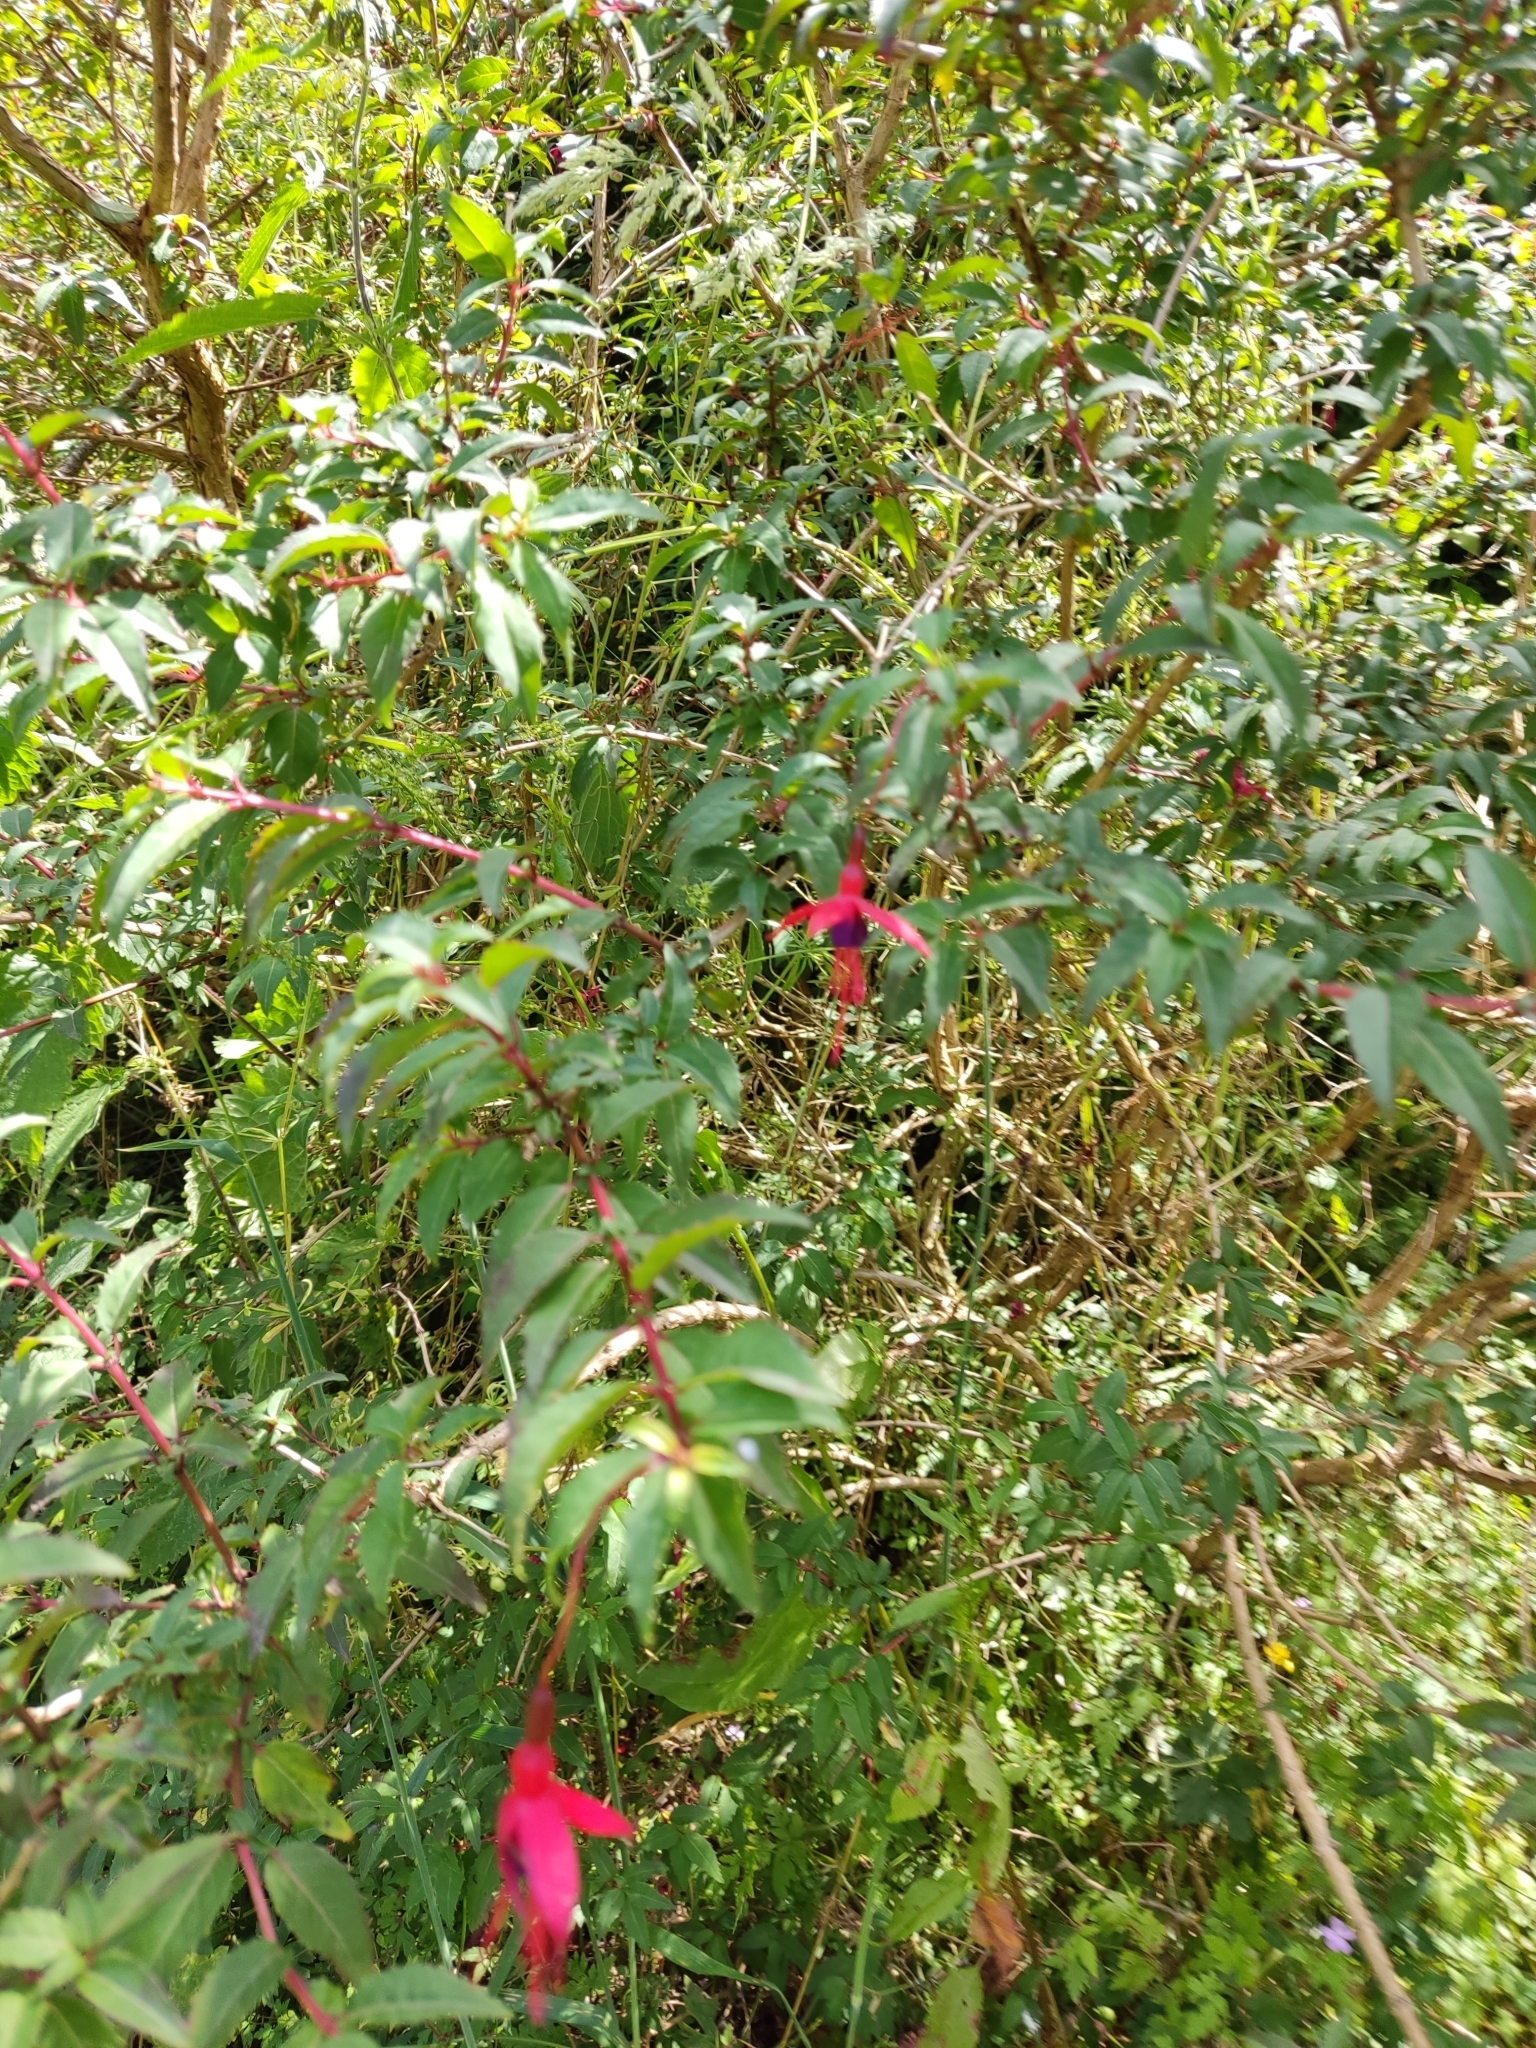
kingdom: Plantae
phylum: Tracheophyta
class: Magnoliopsida
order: Myrtales
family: Onagraceae
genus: Fuchsia
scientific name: Fuchsia magellanica
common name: Hardy fuchsia
